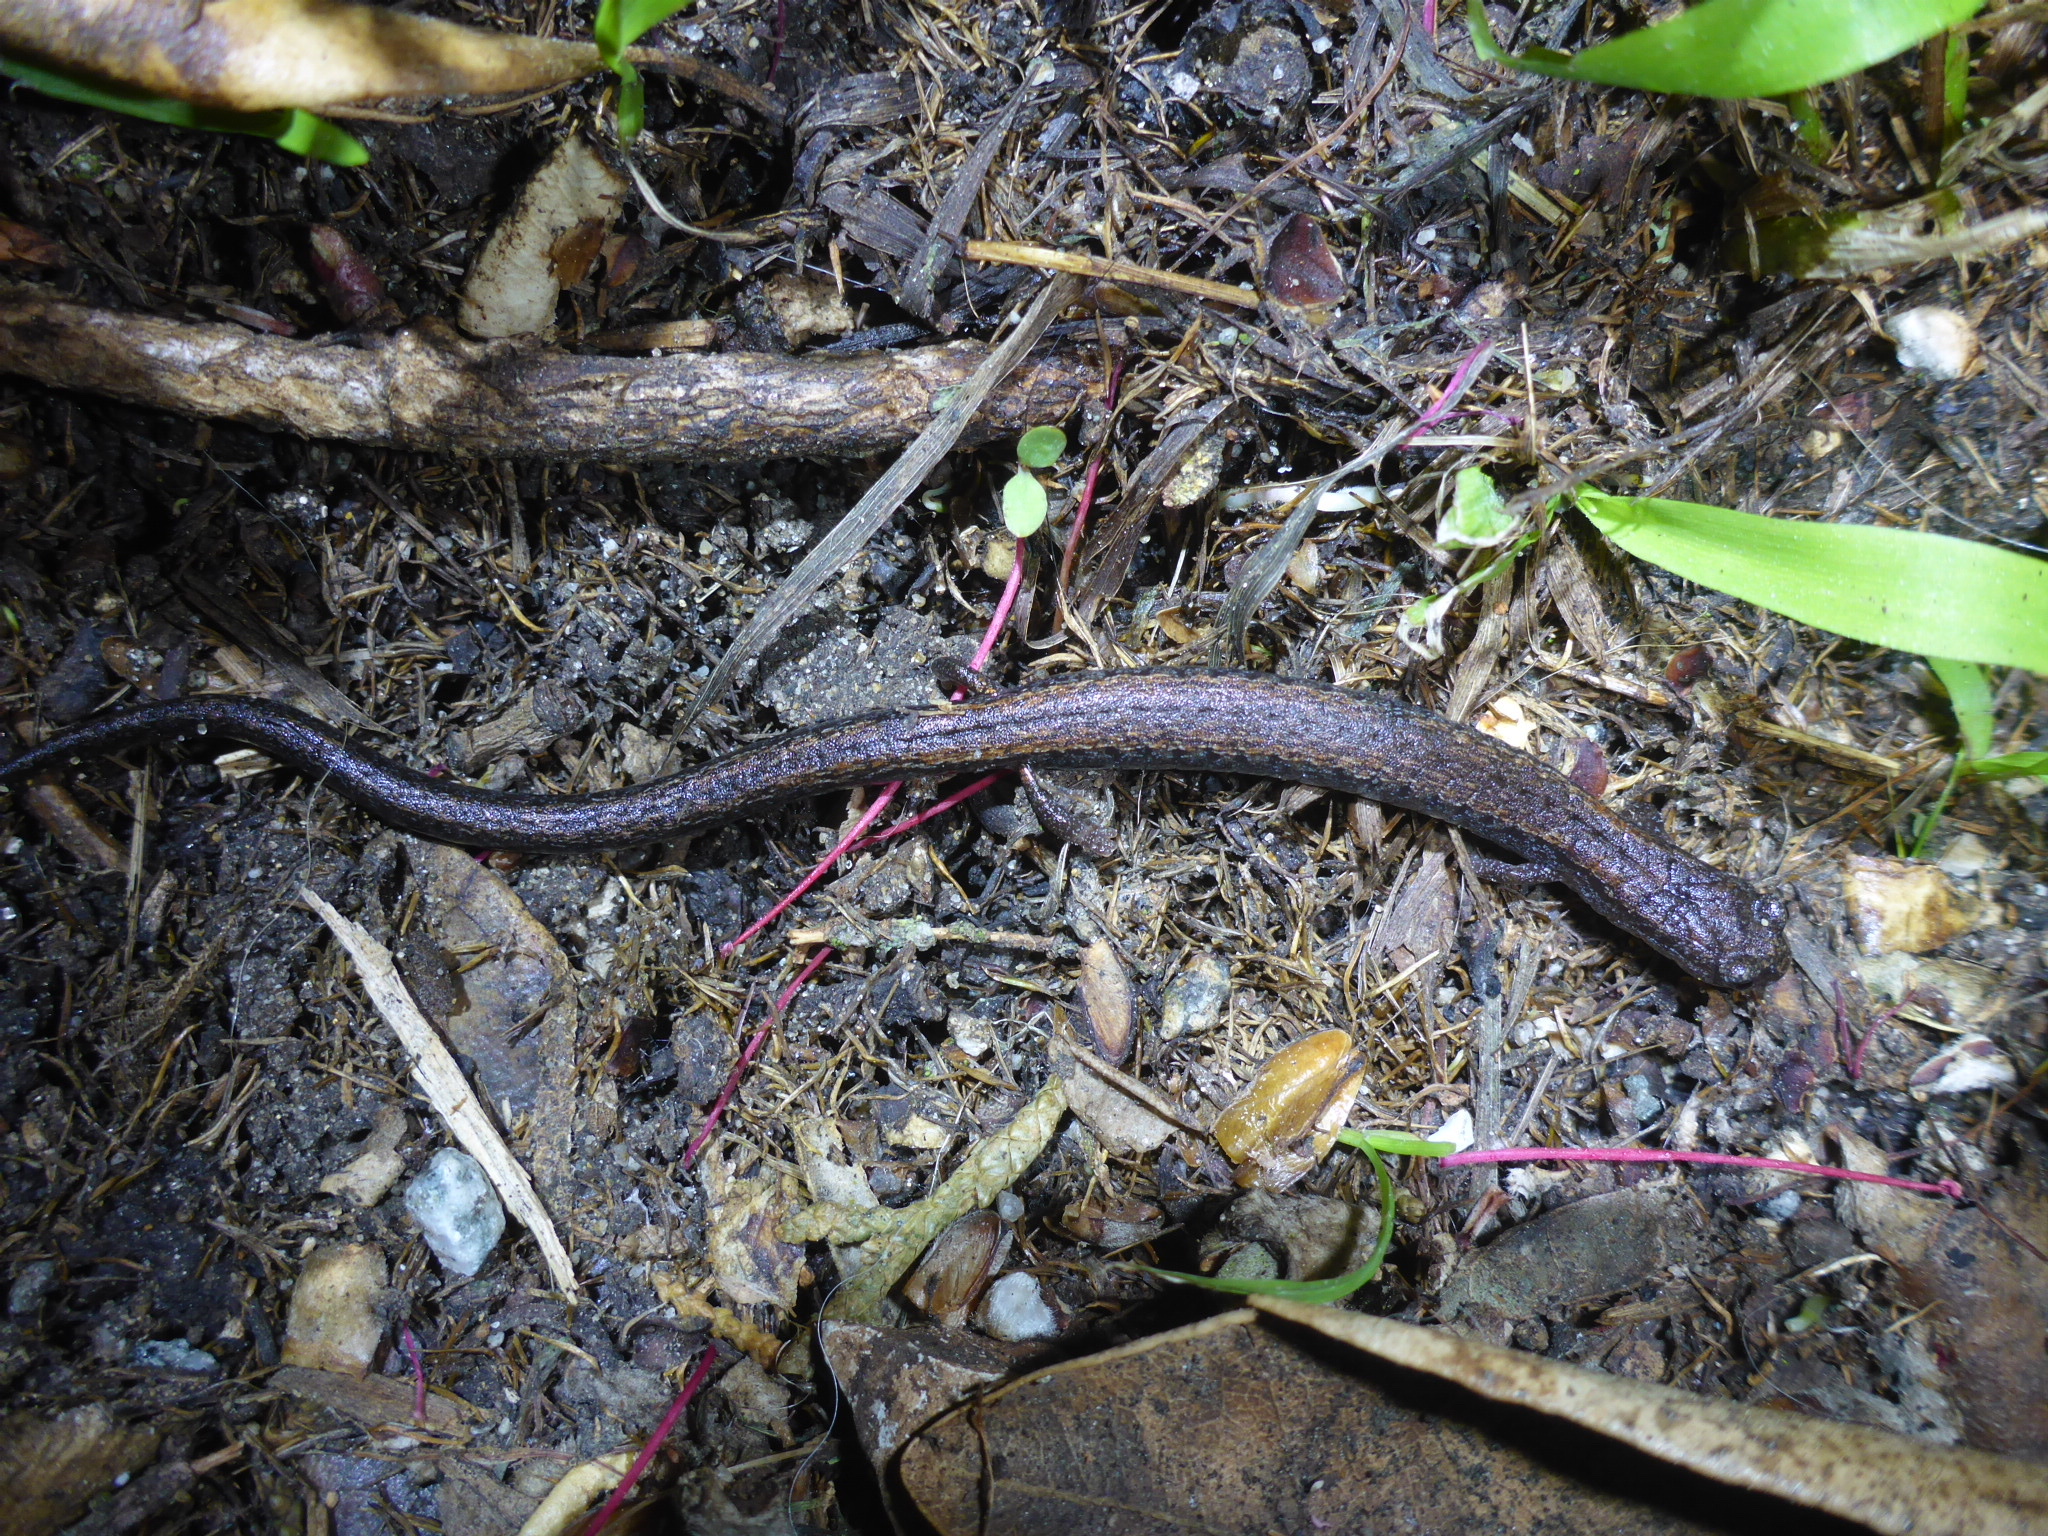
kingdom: Animalia
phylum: Chordata
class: Amphibia
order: Caudata
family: Plethodontidae
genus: Batrachoseps
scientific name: Batrachoseps attenuatus
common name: California slender salamander
